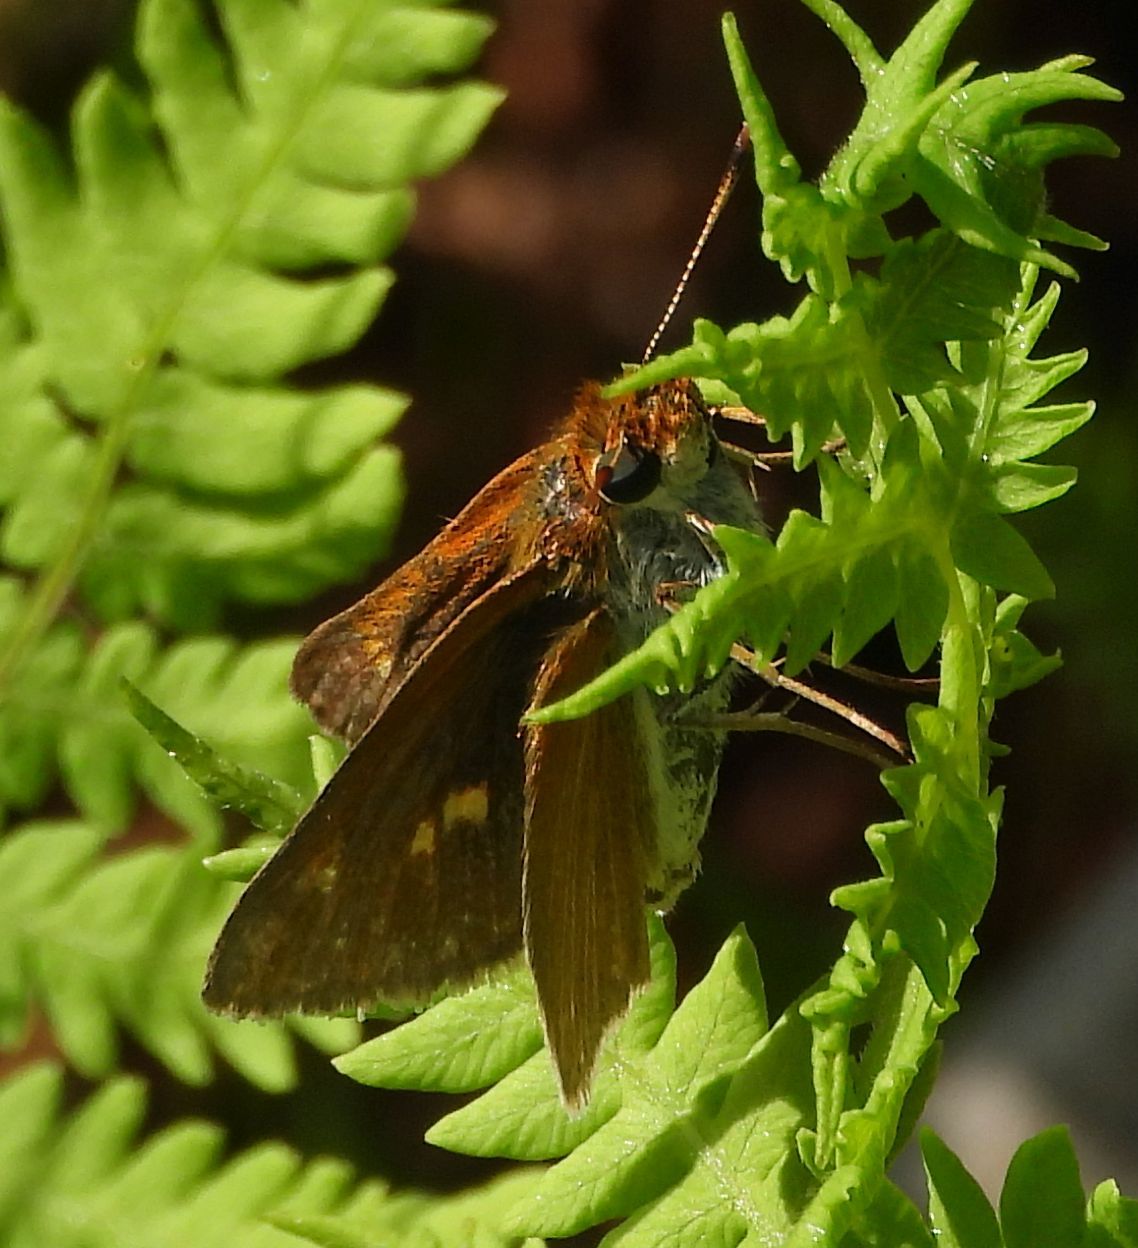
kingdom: Animalia
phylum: Arthropoda
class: Insecta
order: Lepidoptera
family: Hesperiidae
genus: Euphyes
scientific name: Euphyes bimacula
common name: Two-spotted skipper
